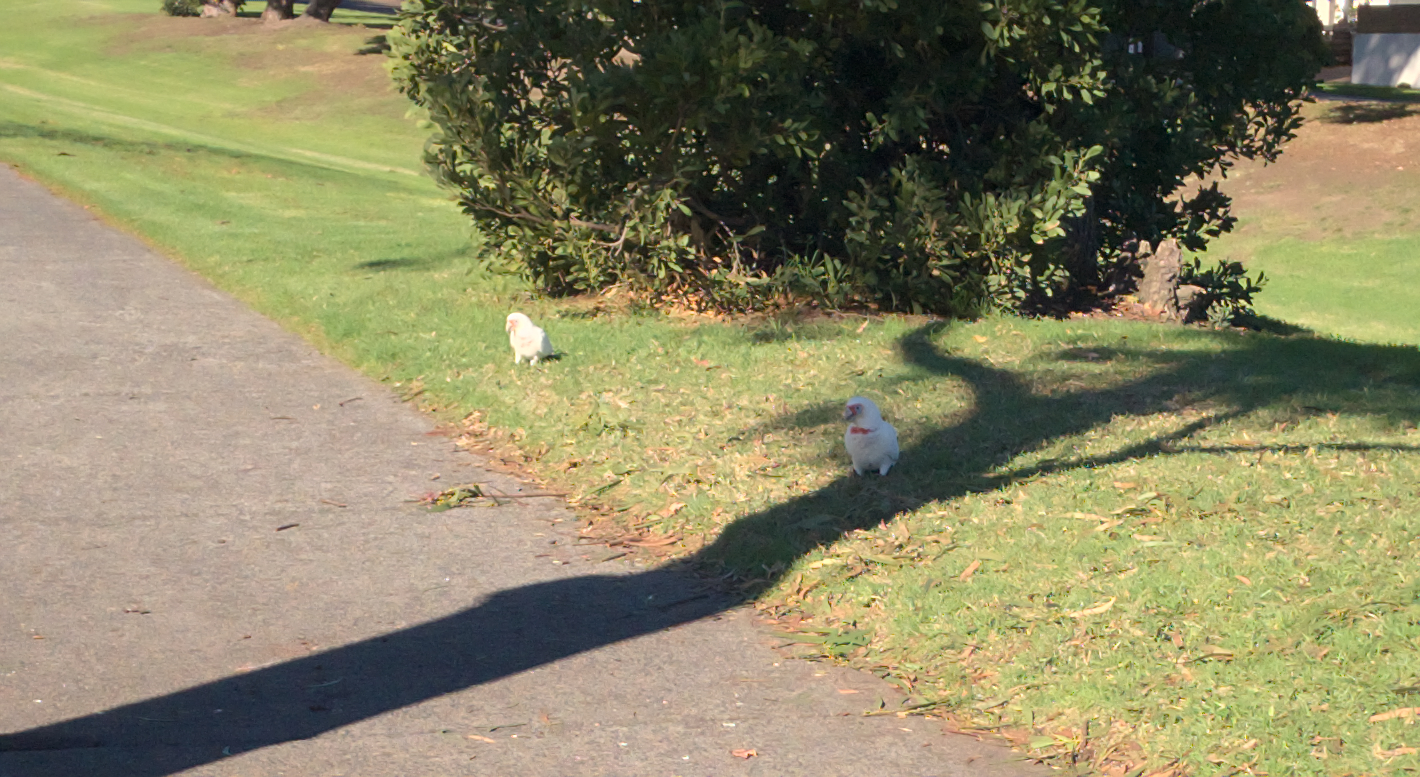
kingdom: Animalia
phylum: Chordata
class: Aves
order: Psittaciformes
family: Psittacidae
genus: Cacatua
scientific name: Cacatua tenuirostris
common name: Long-billed corella
